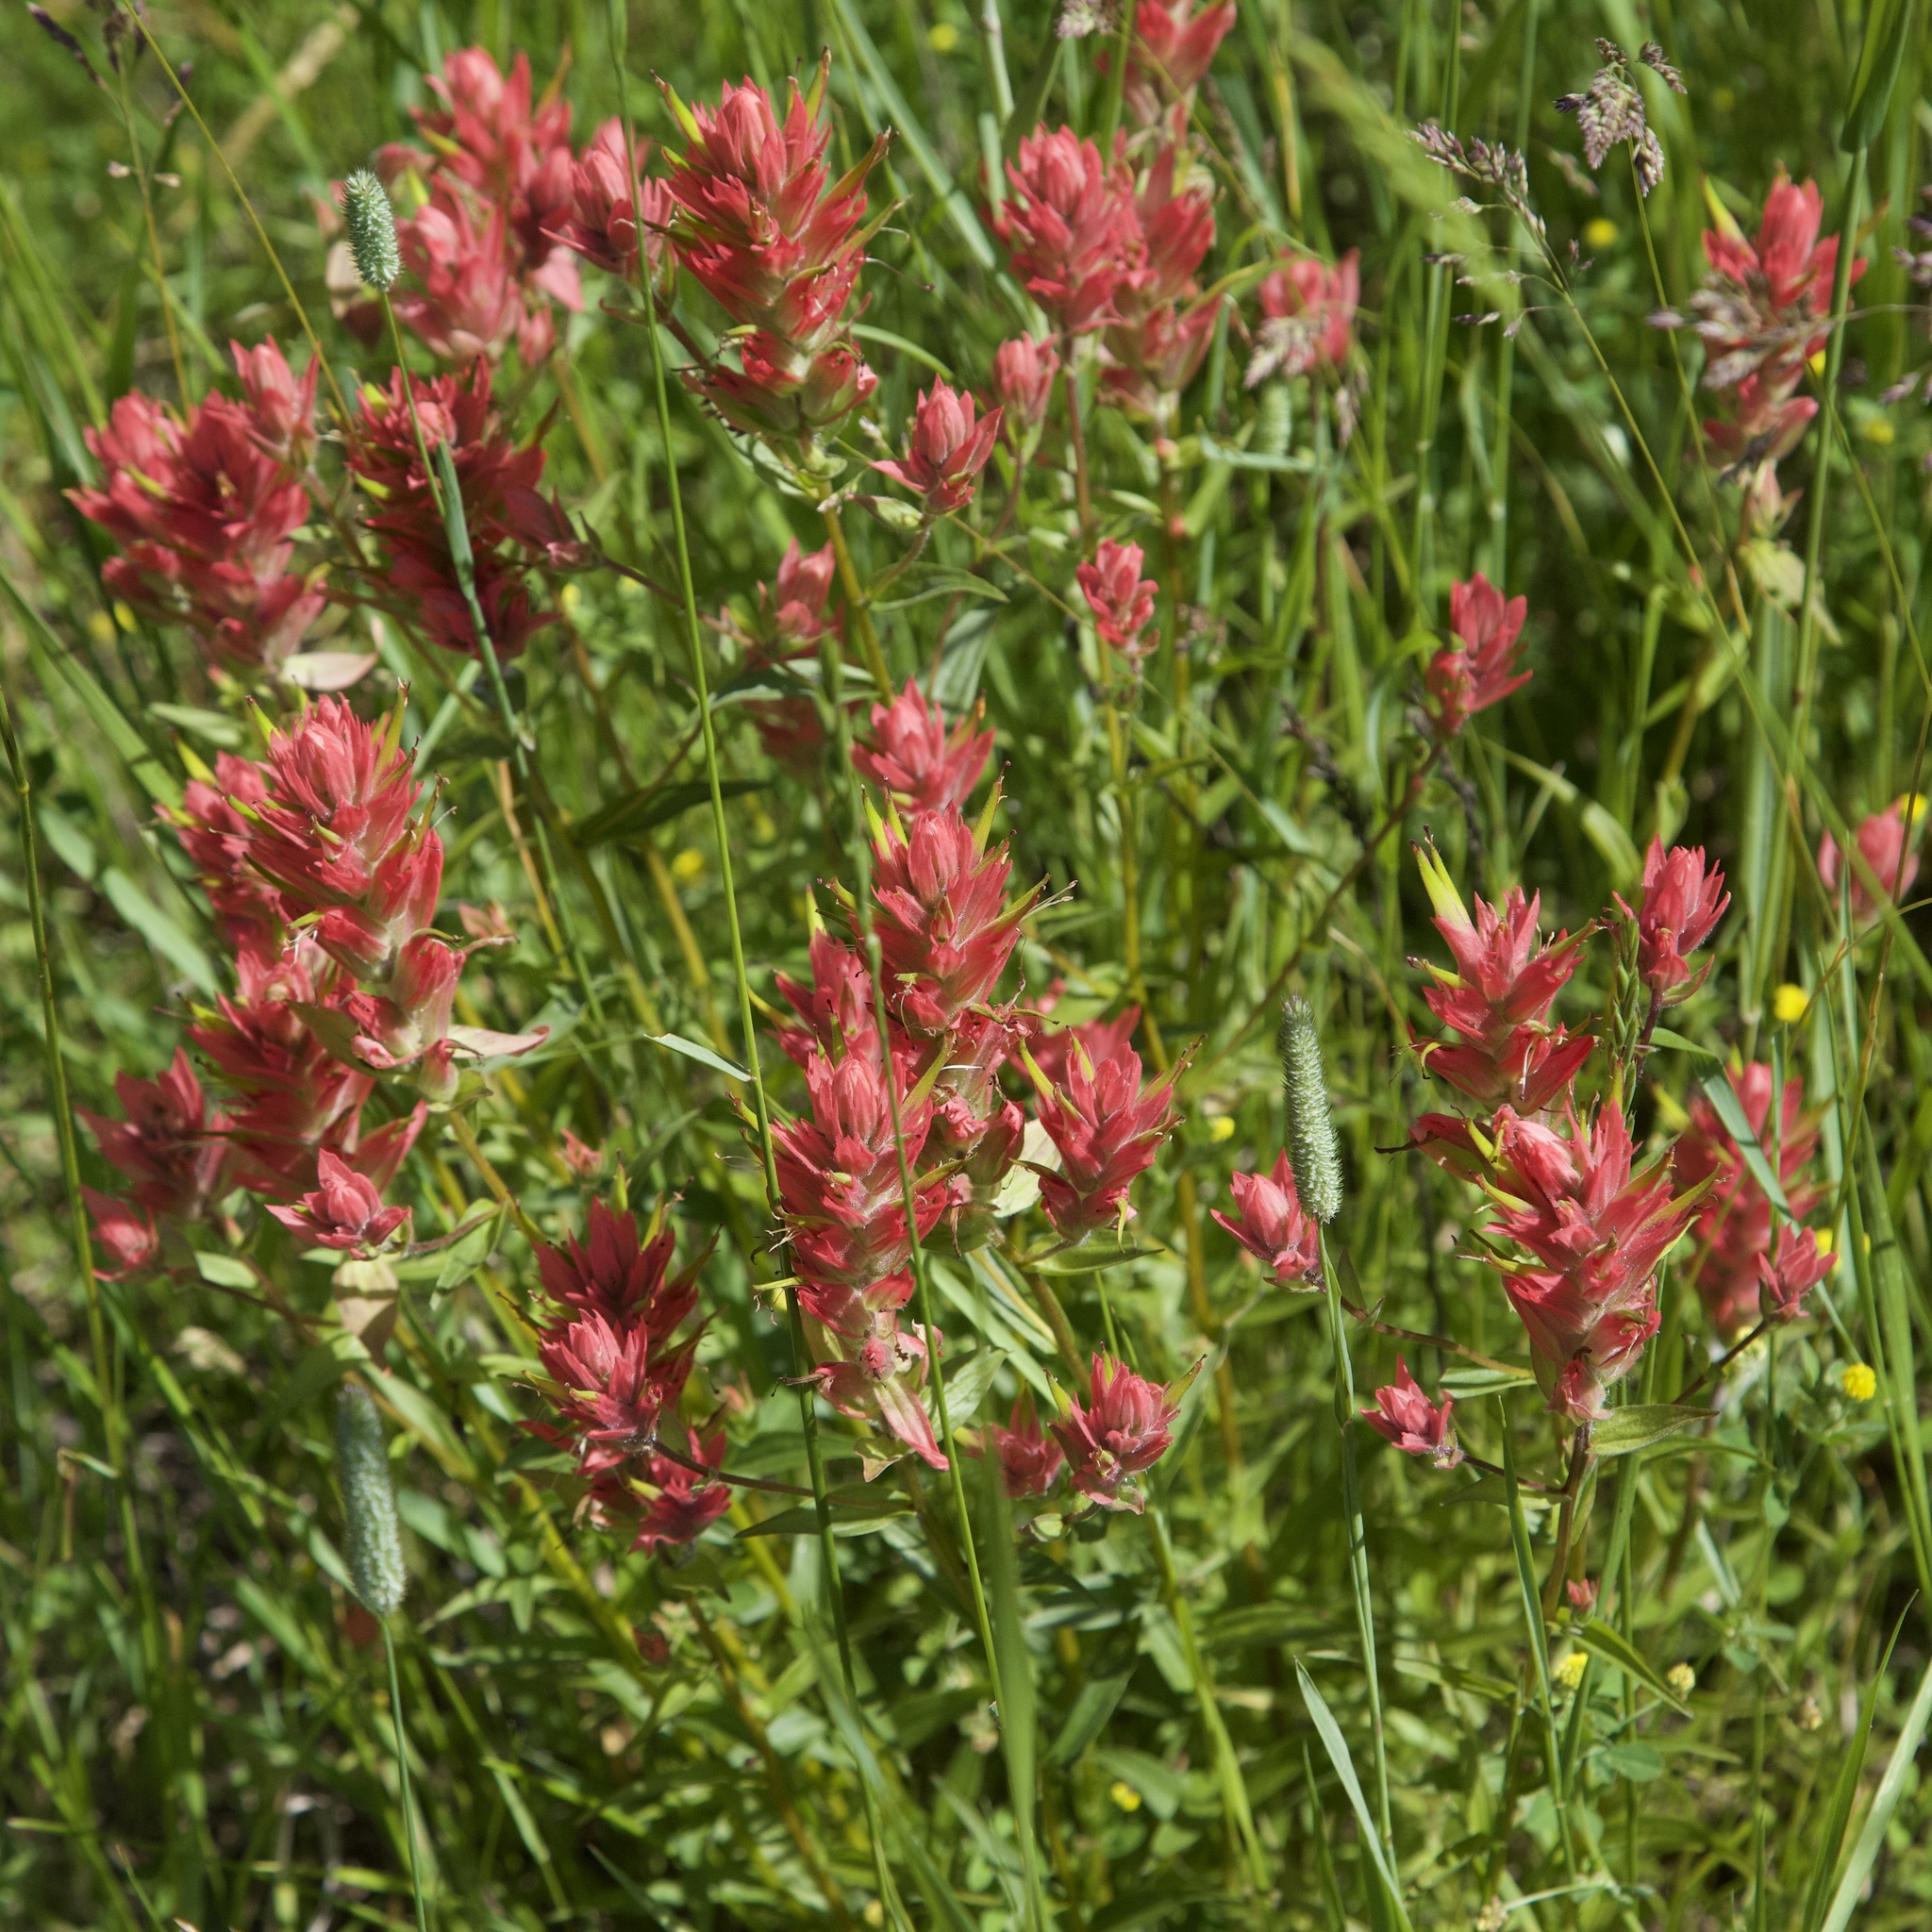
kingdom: Plantae
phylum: Tracheophyta
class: Magnoliopsida
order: Lamiales
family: Orobanchaceae
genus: Castilleja
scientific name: Castilleja miniata
